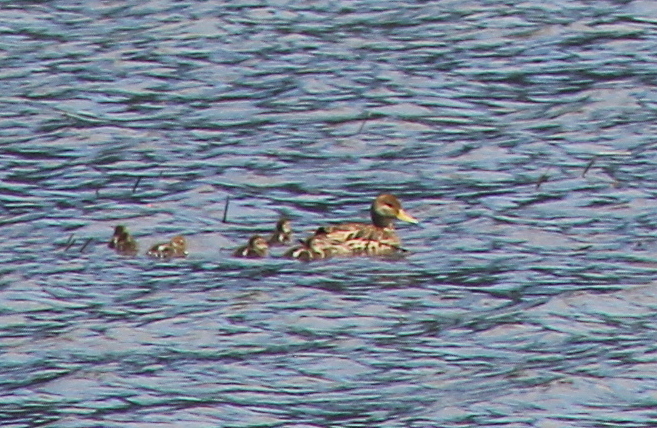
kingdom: Animalia
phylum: Chordata
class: Aves
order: Anseriformes
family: Anatidae
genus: Anas
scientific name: Anas georgica
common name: Yellow-billed pintail
